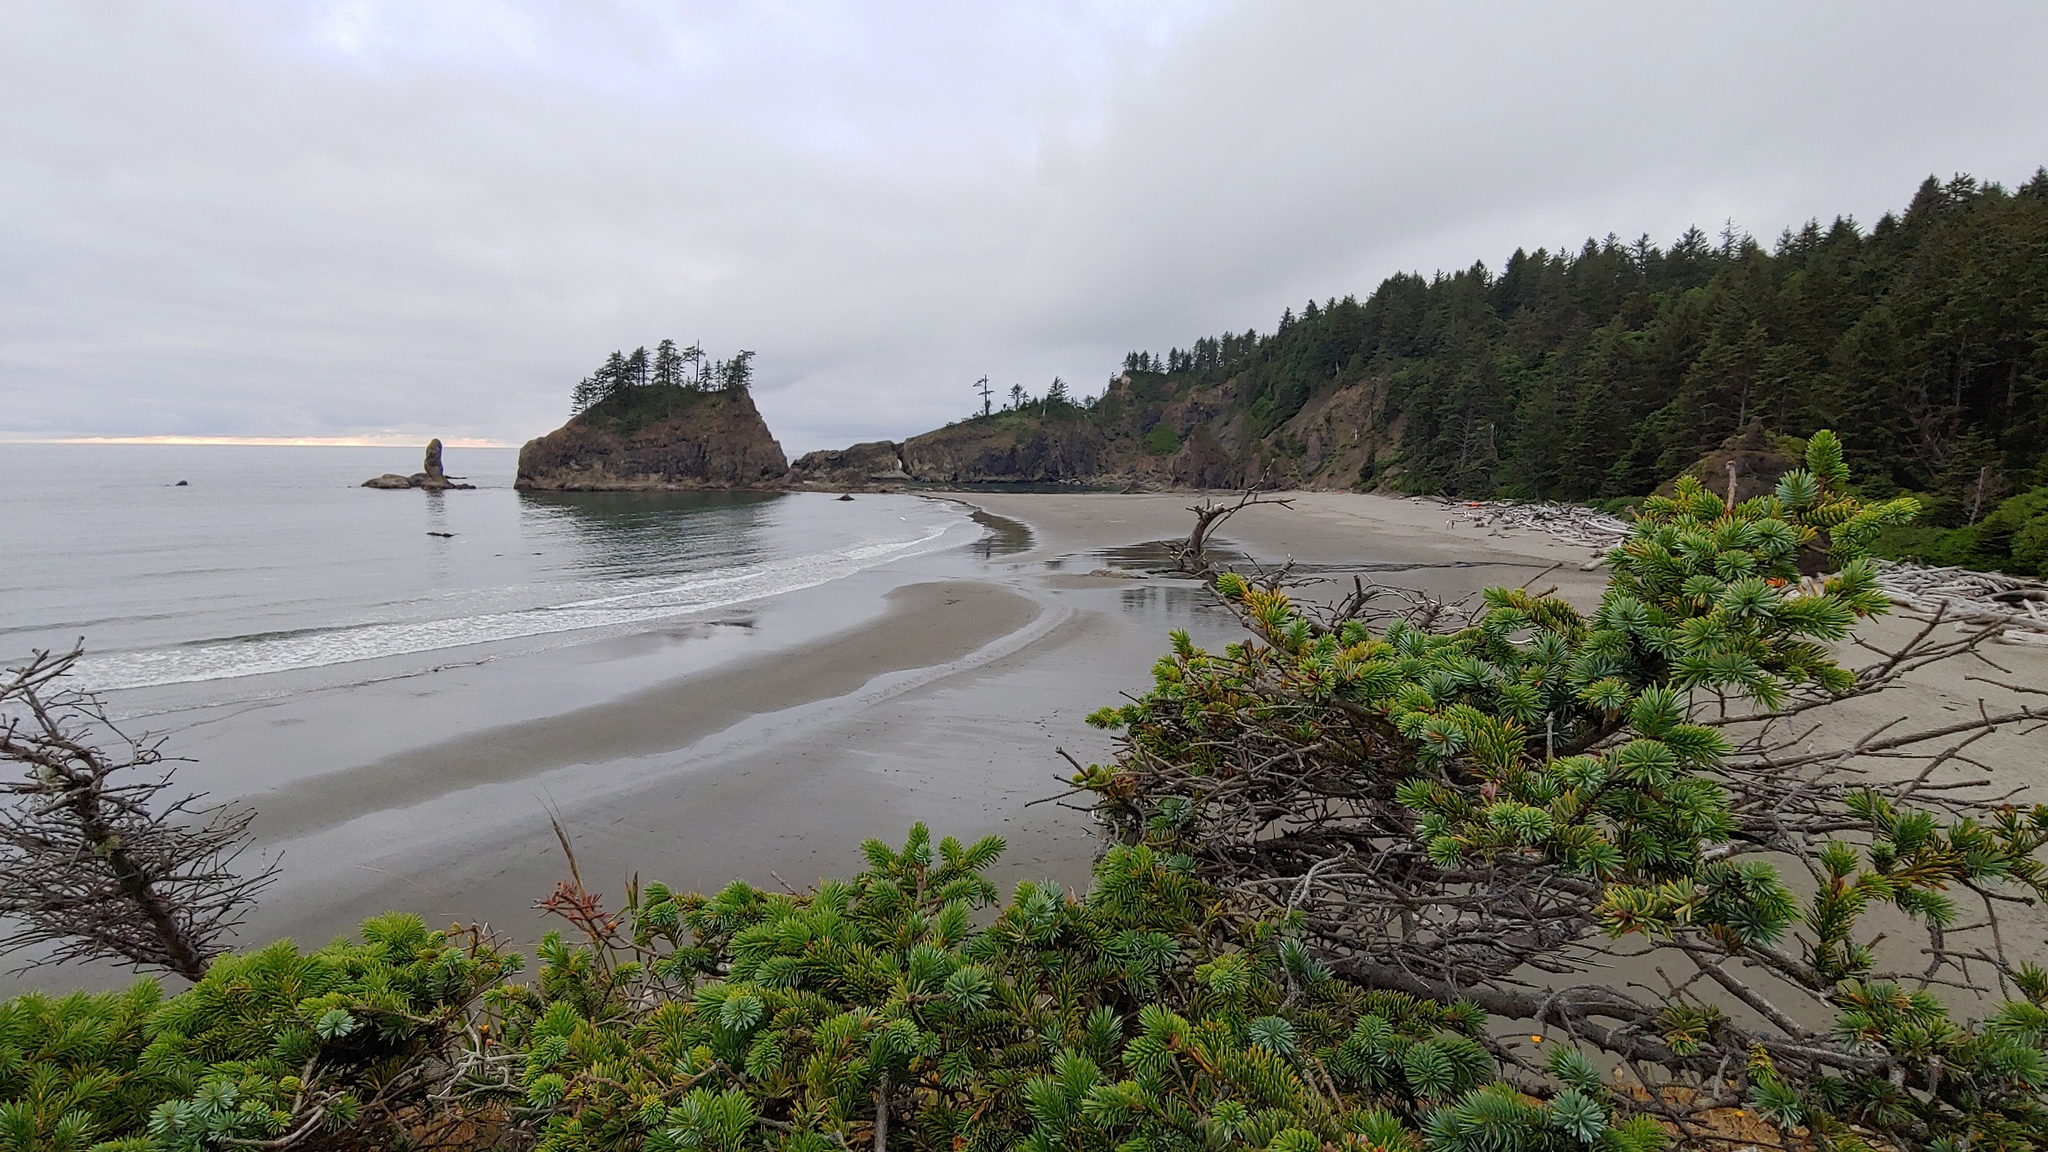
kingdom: Plantae
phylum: Tracheophyta
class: Pinopsida
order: Pinales
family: Pinaceae
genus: Picea
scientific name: Picea sitchensis
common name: Sitka spruce
